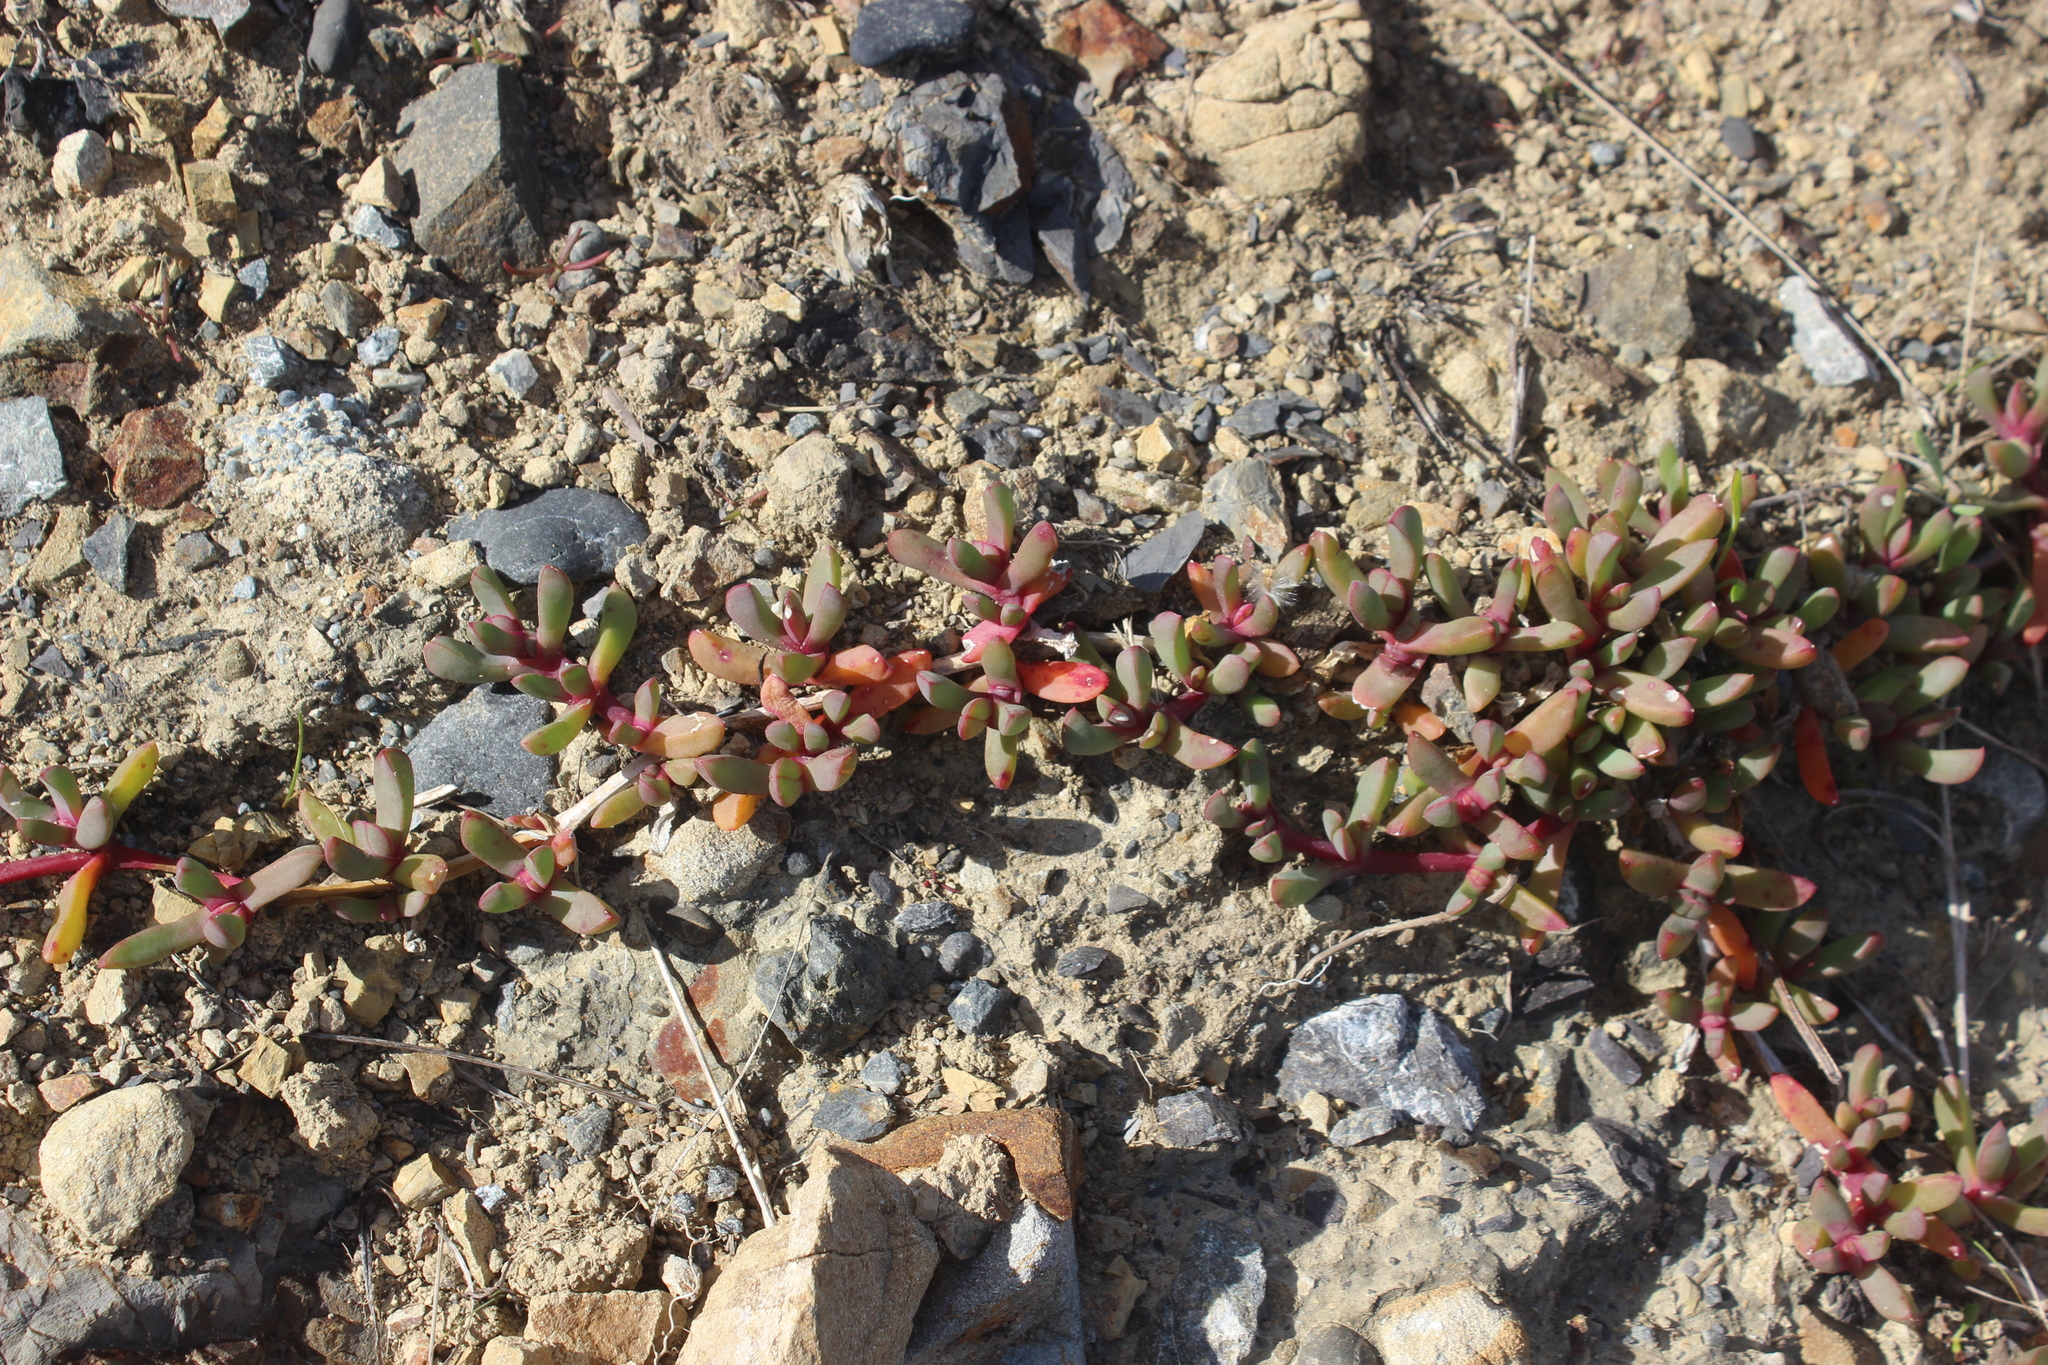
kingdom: Plantae
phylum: Tracheophyta
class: Magnoliopsida
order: Caryophyllales
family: Aizoaceae
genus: Disphyma
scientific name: Disphyma australe
